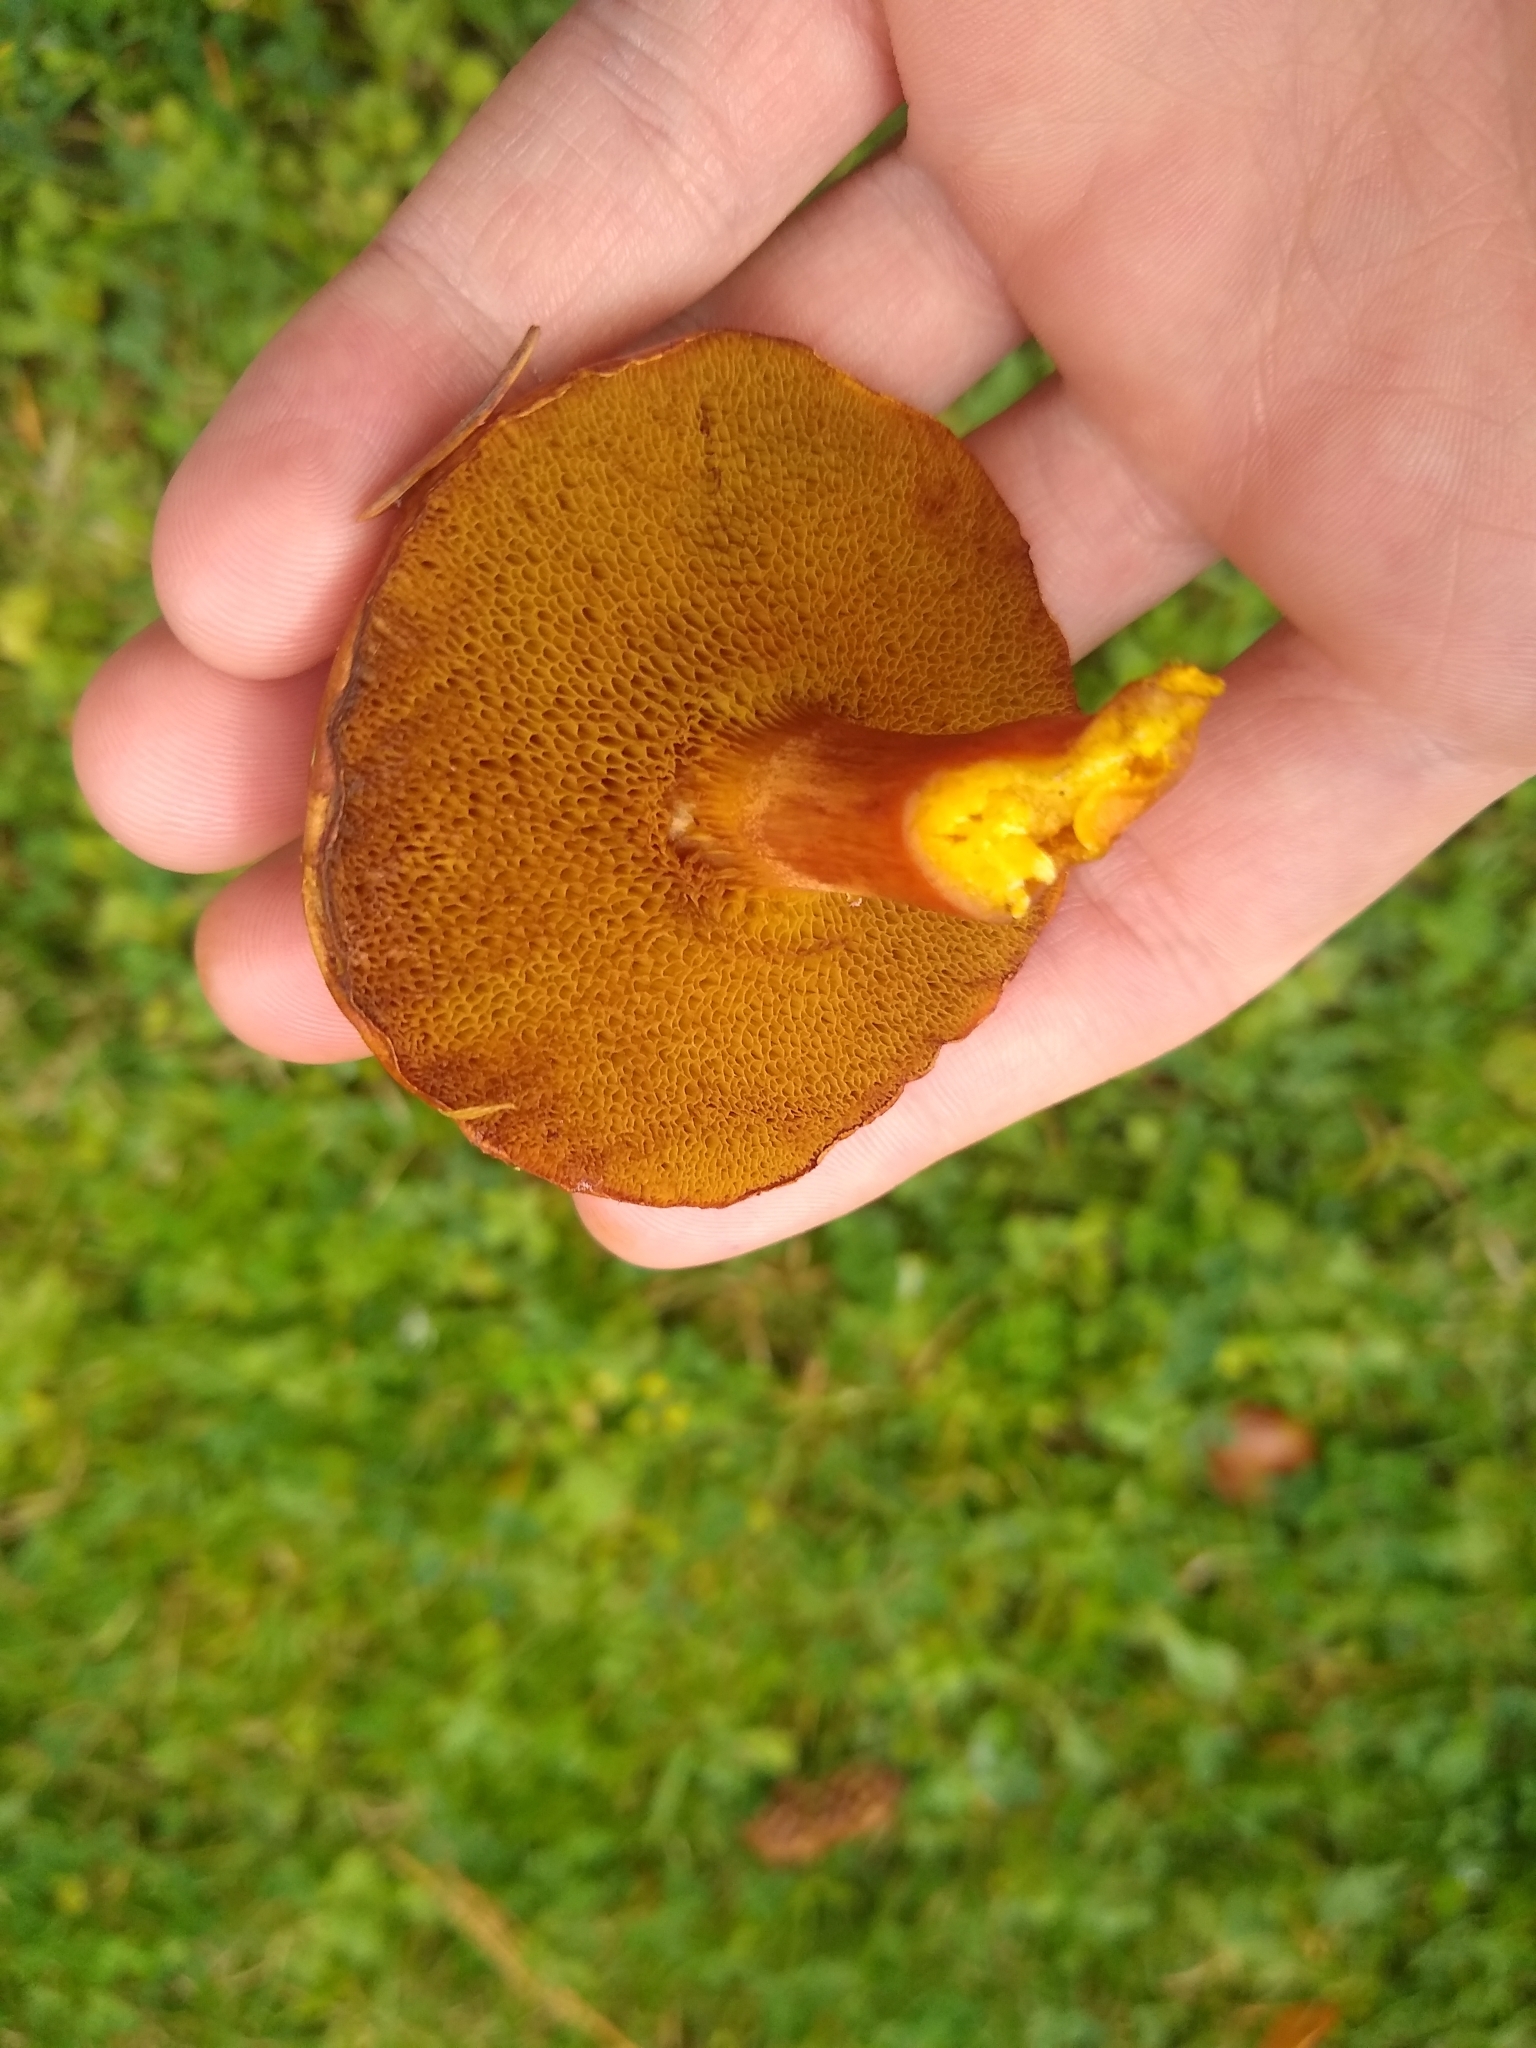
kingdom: Fungi
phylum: Basidiomycota
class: Agaricomycetes
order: Boletales
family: Boletaceae
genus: Chalciporus
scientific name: Chalciporus piperatus
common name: Peppery bolete
